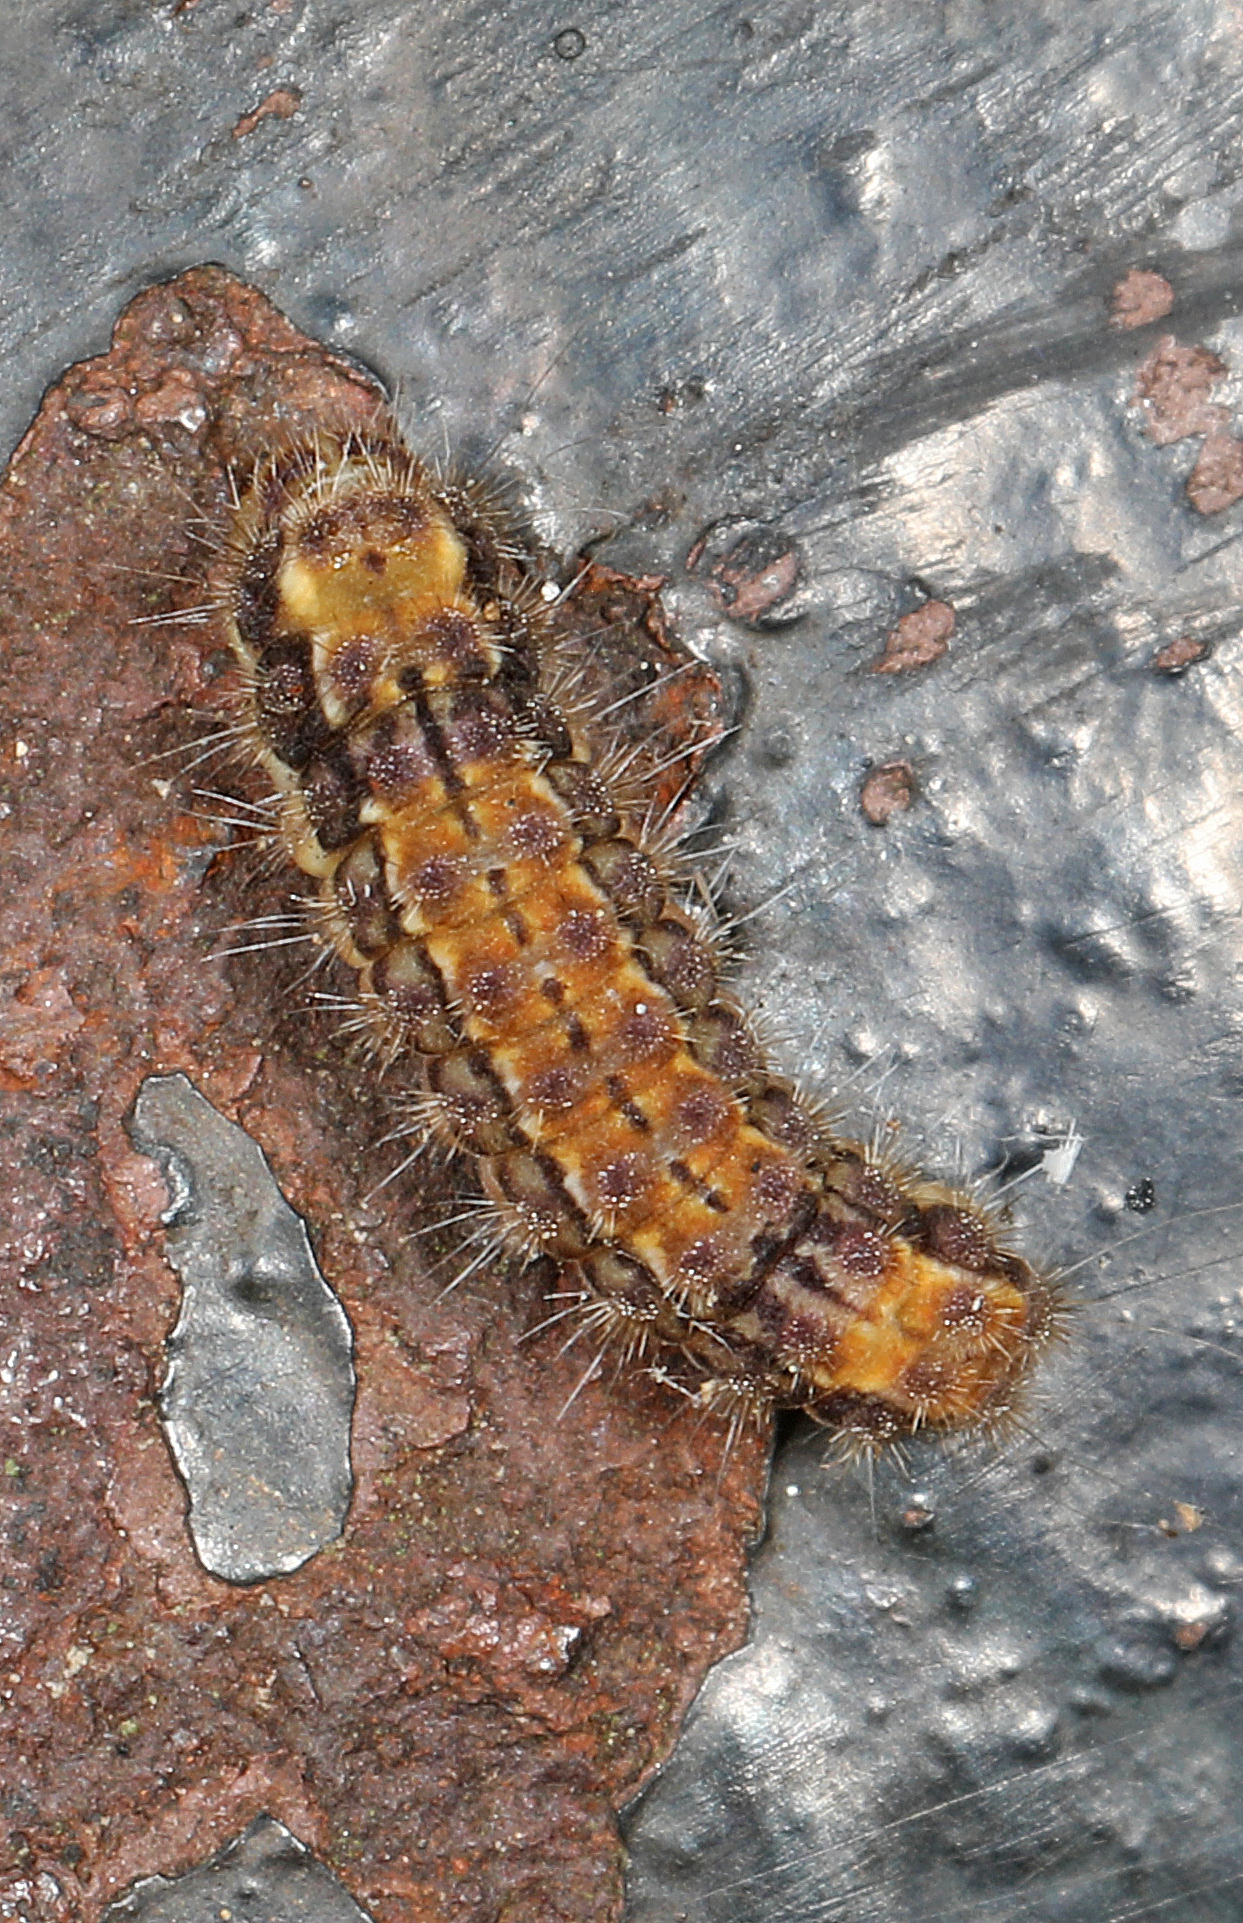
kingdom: Animalia
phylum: Arthropoda
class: Insecta
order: Lepidoptera
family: Zygaenidae
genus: Acoloithus
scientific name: Acoloithus falsarius
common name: Clemens' false skeletonizer
